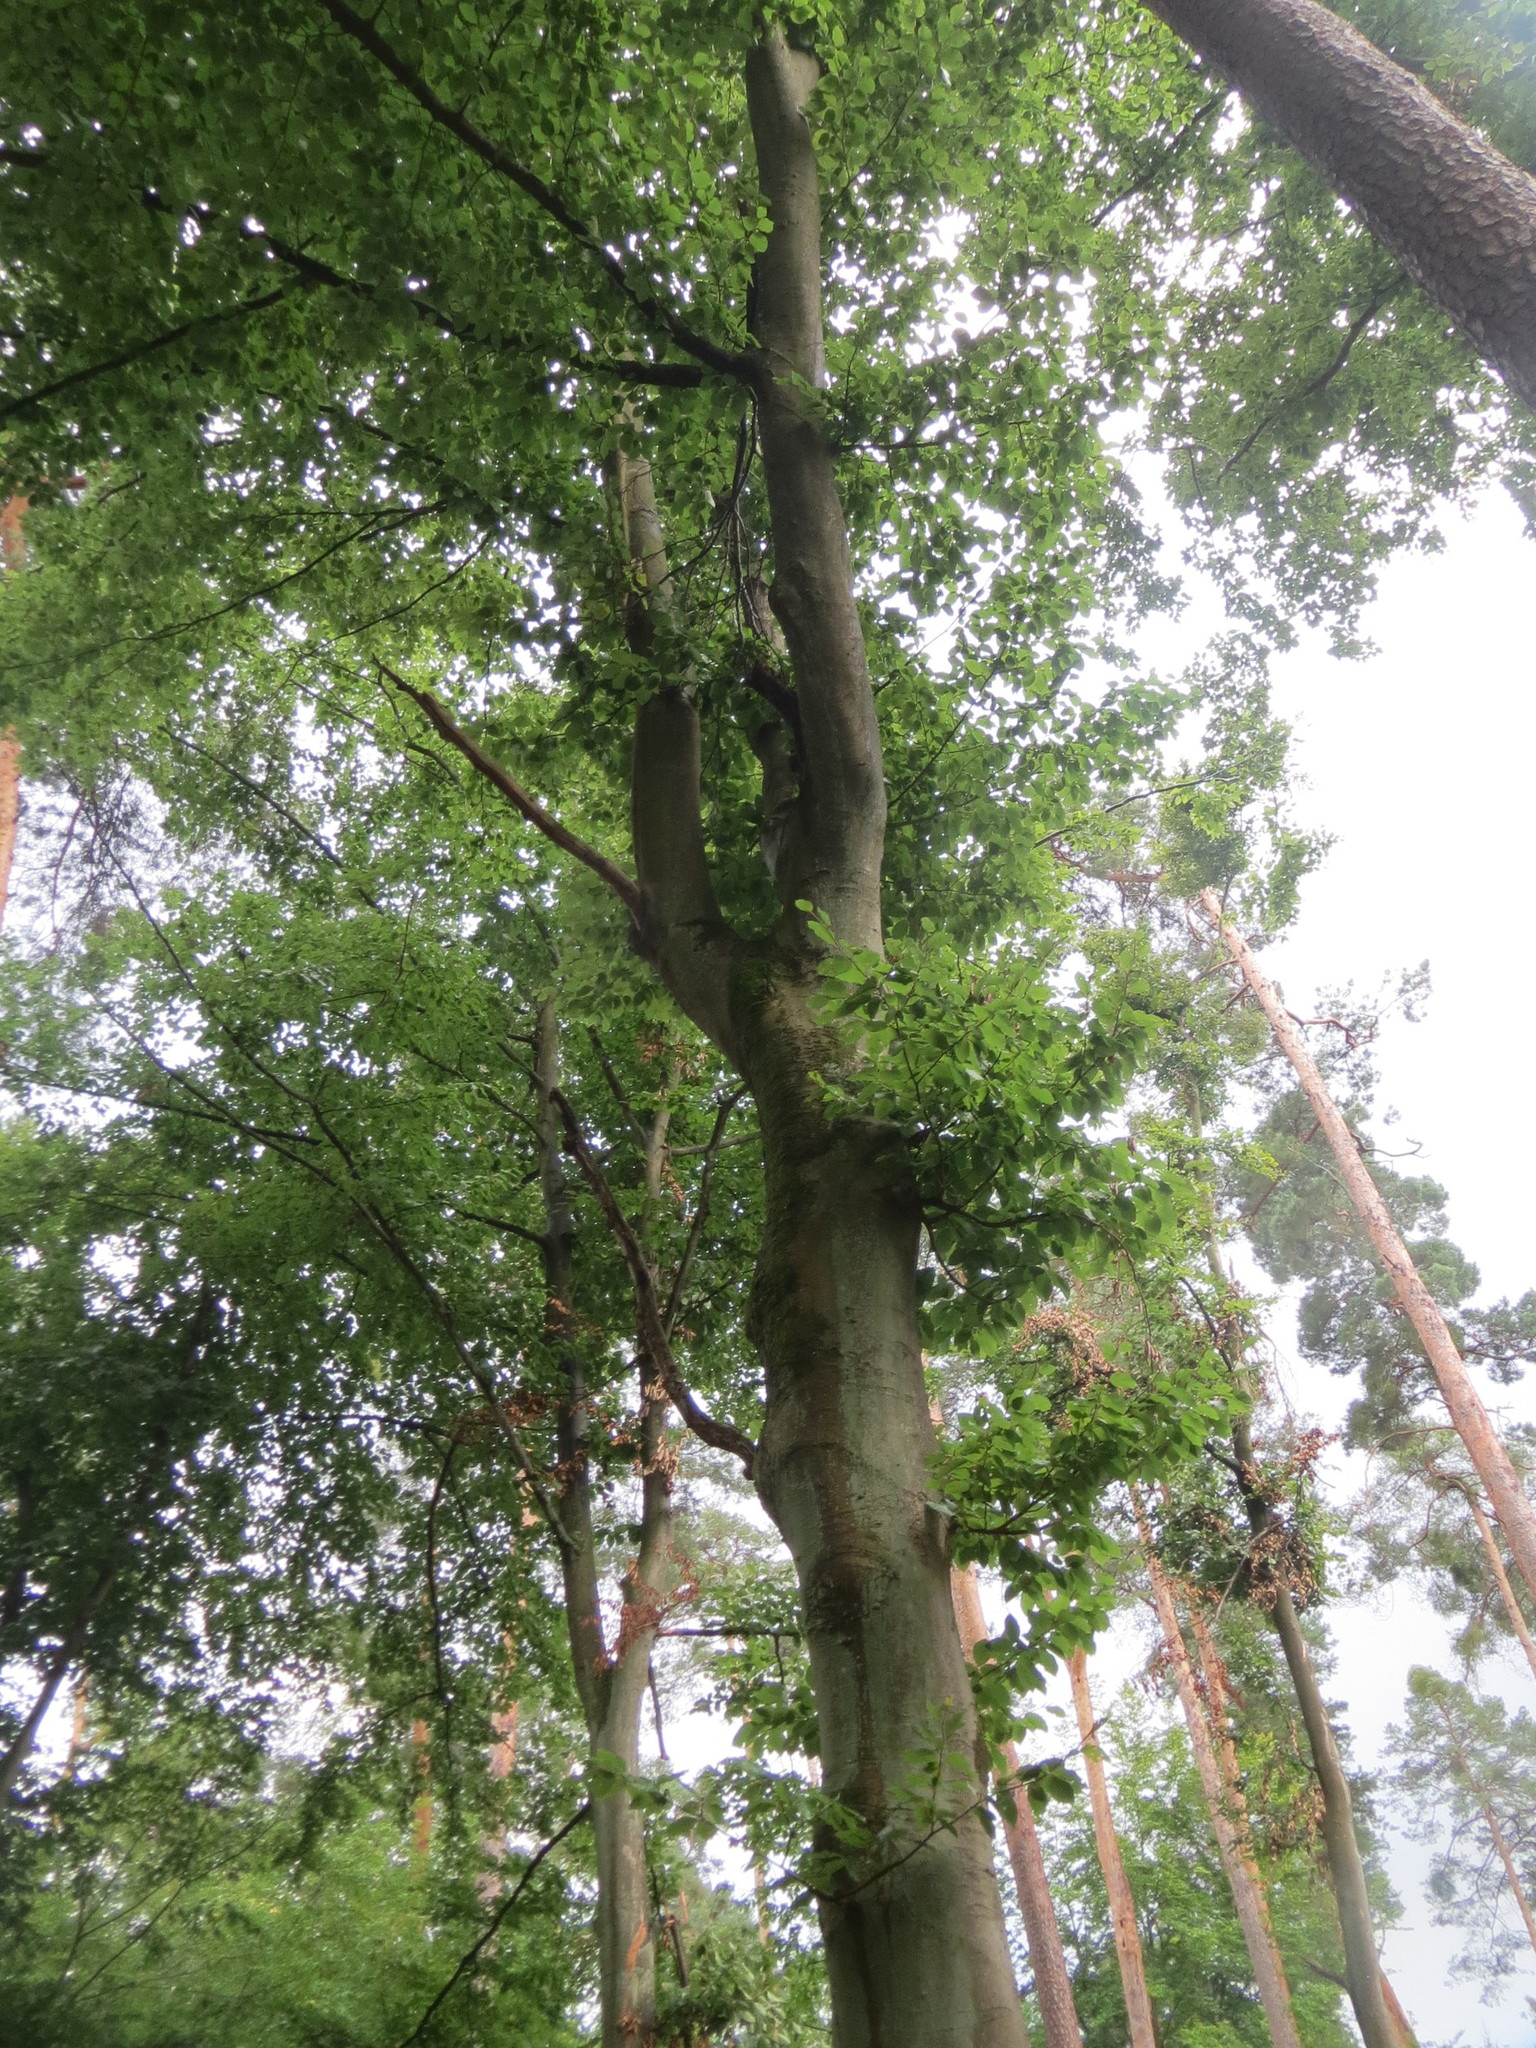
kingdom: Plantae
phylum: Tracheophyta
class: Magnoliopsida
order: Fagales
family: Fagaceae
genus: Fagus
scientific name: Fagus sylvatica
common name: Beech
